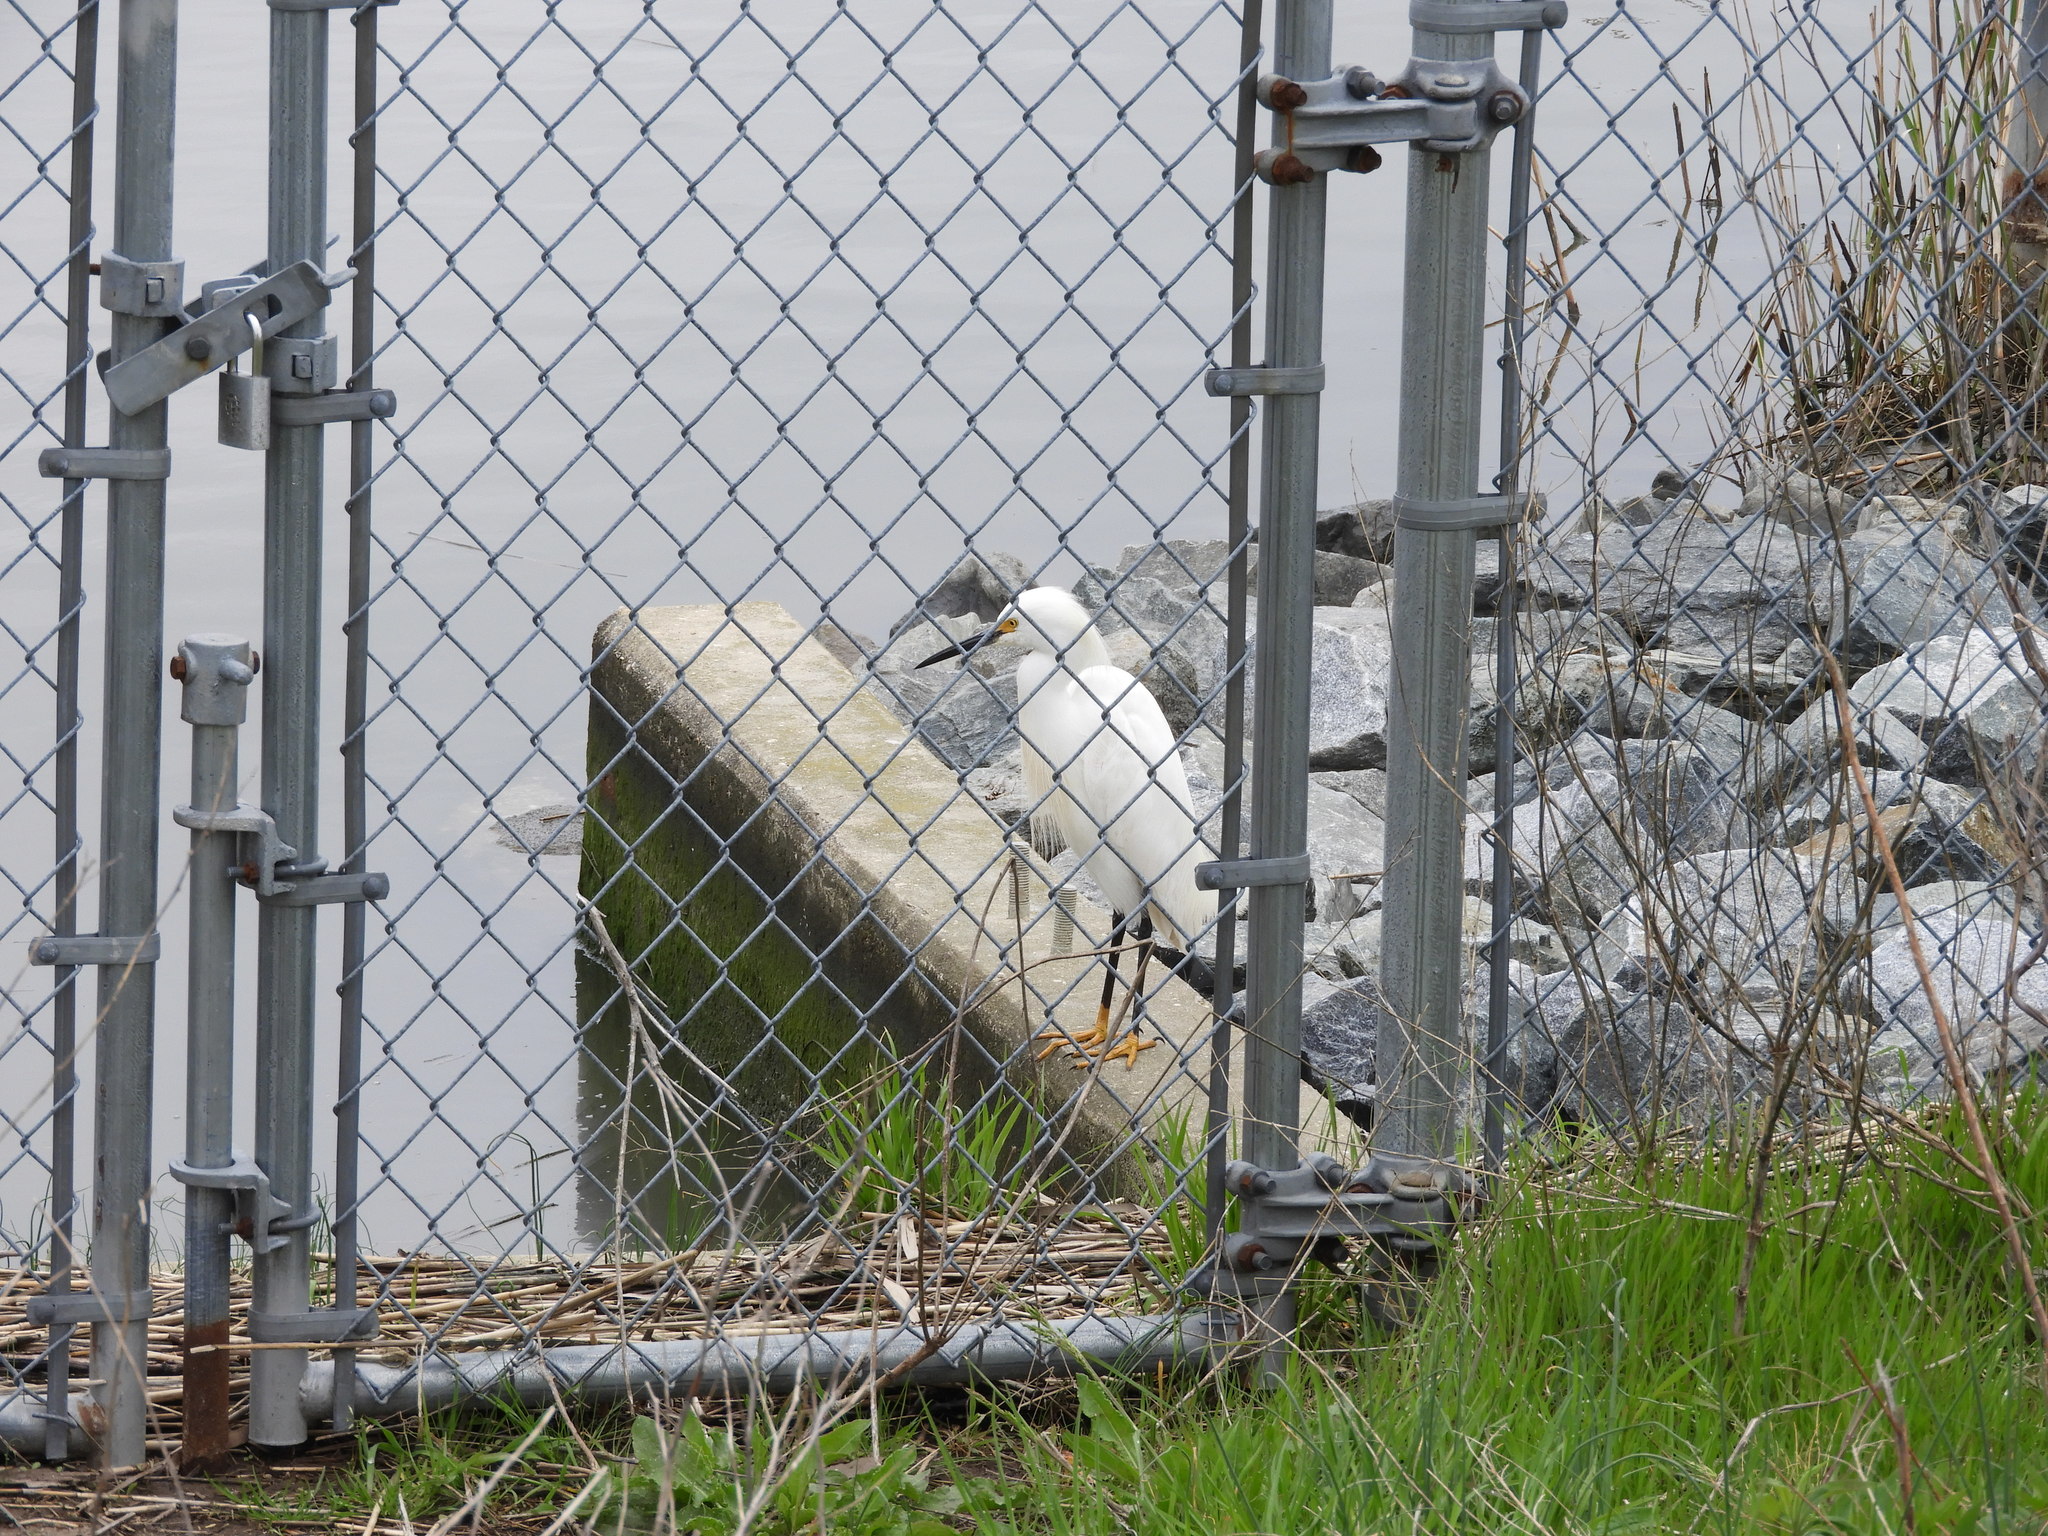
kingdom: Animalia
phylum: Chordata
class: Aves
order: Pelecaniformes
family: Ardeidae
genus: Egretta
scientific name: Egretta thula
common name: Snowy egret
